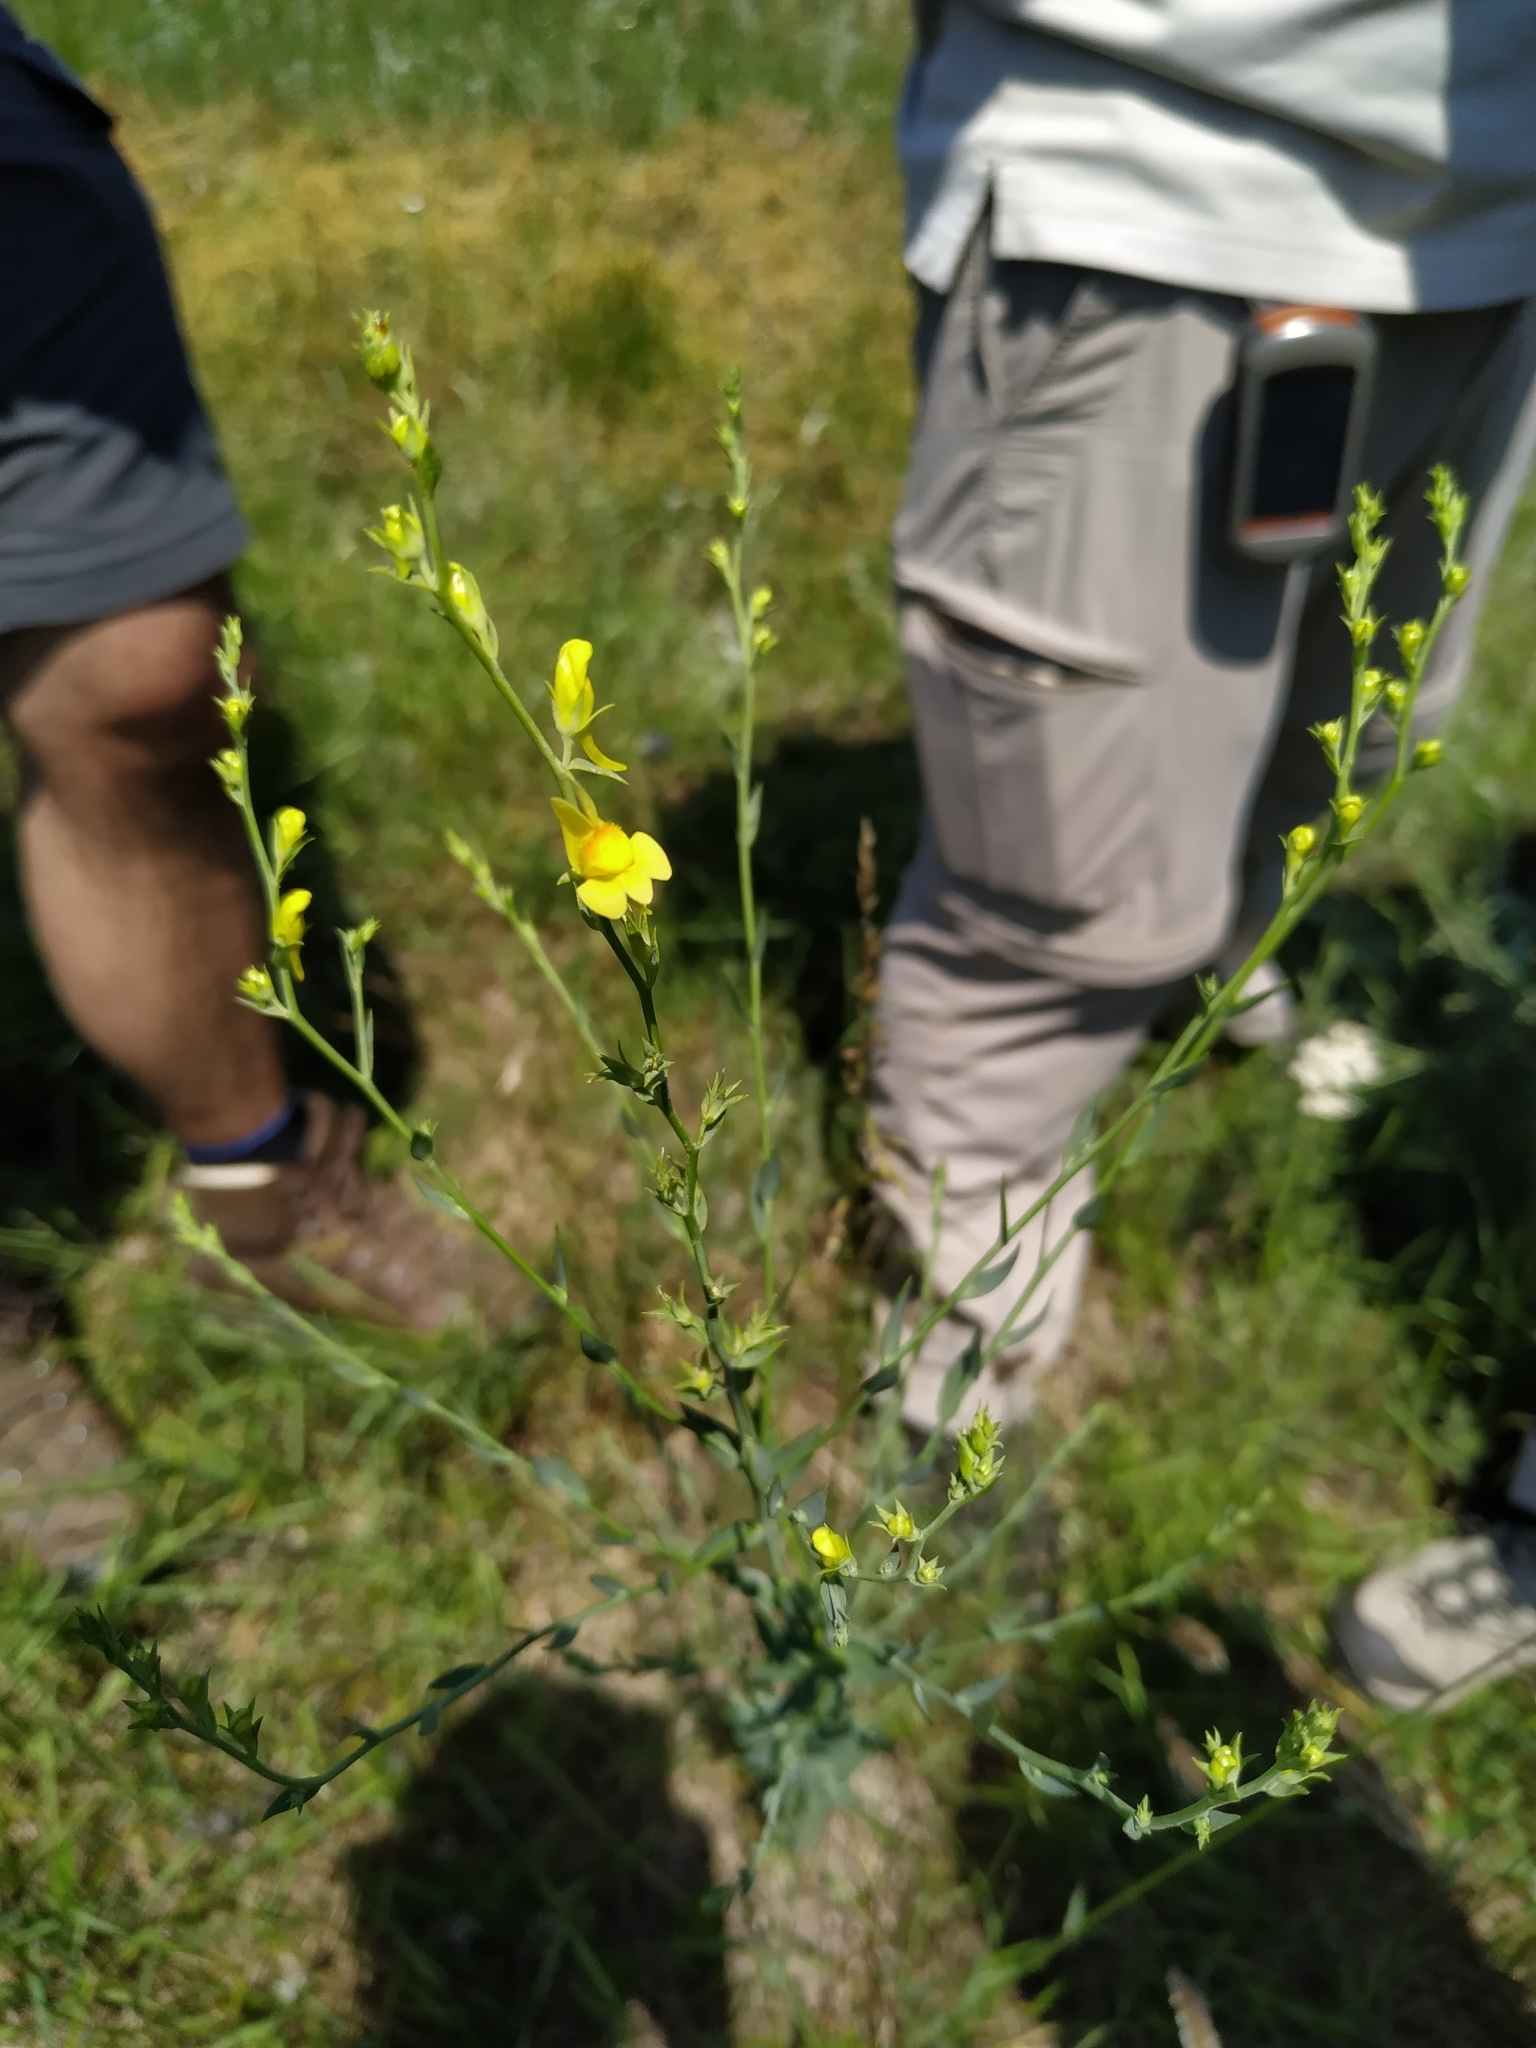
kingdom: Plantae
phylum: Tracheophyta
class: Magnoliopsida
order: Lamiales
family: Plantaginaceae
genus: Linaria
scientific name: Linaria genistifolia
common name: Broomleaf toadflax
